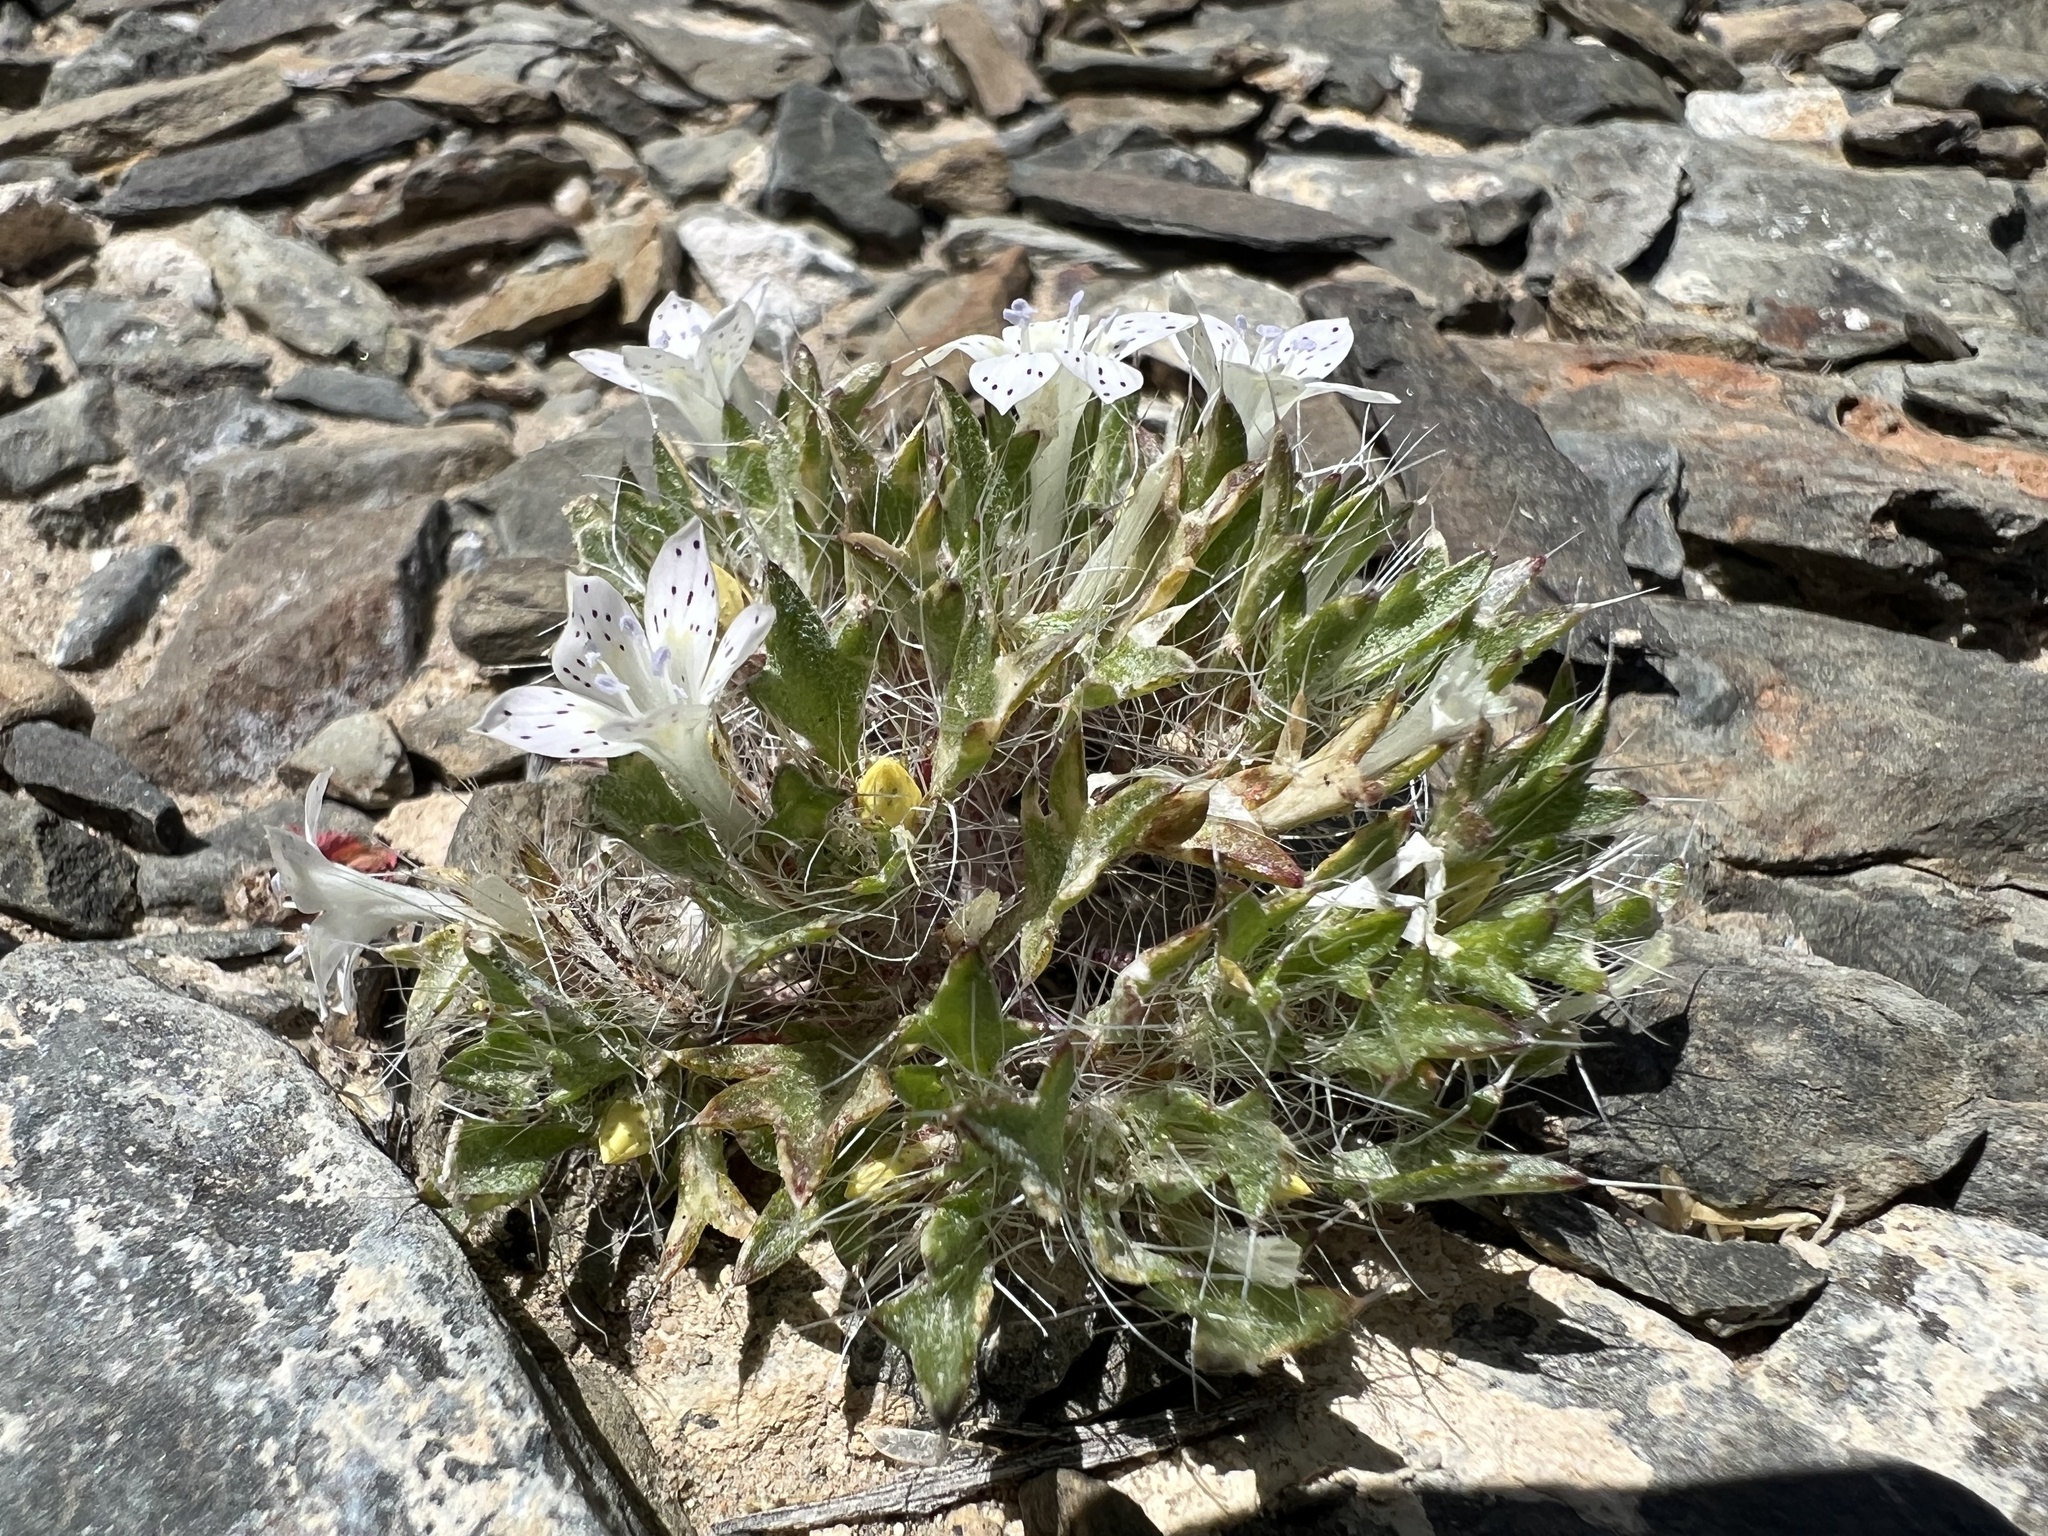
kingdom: Plantae
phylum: Tracheophyta
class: Magnoliopsida
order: Ericales
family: Polemoniaceae
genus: Langloisia
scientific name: Langloisia setosissima
